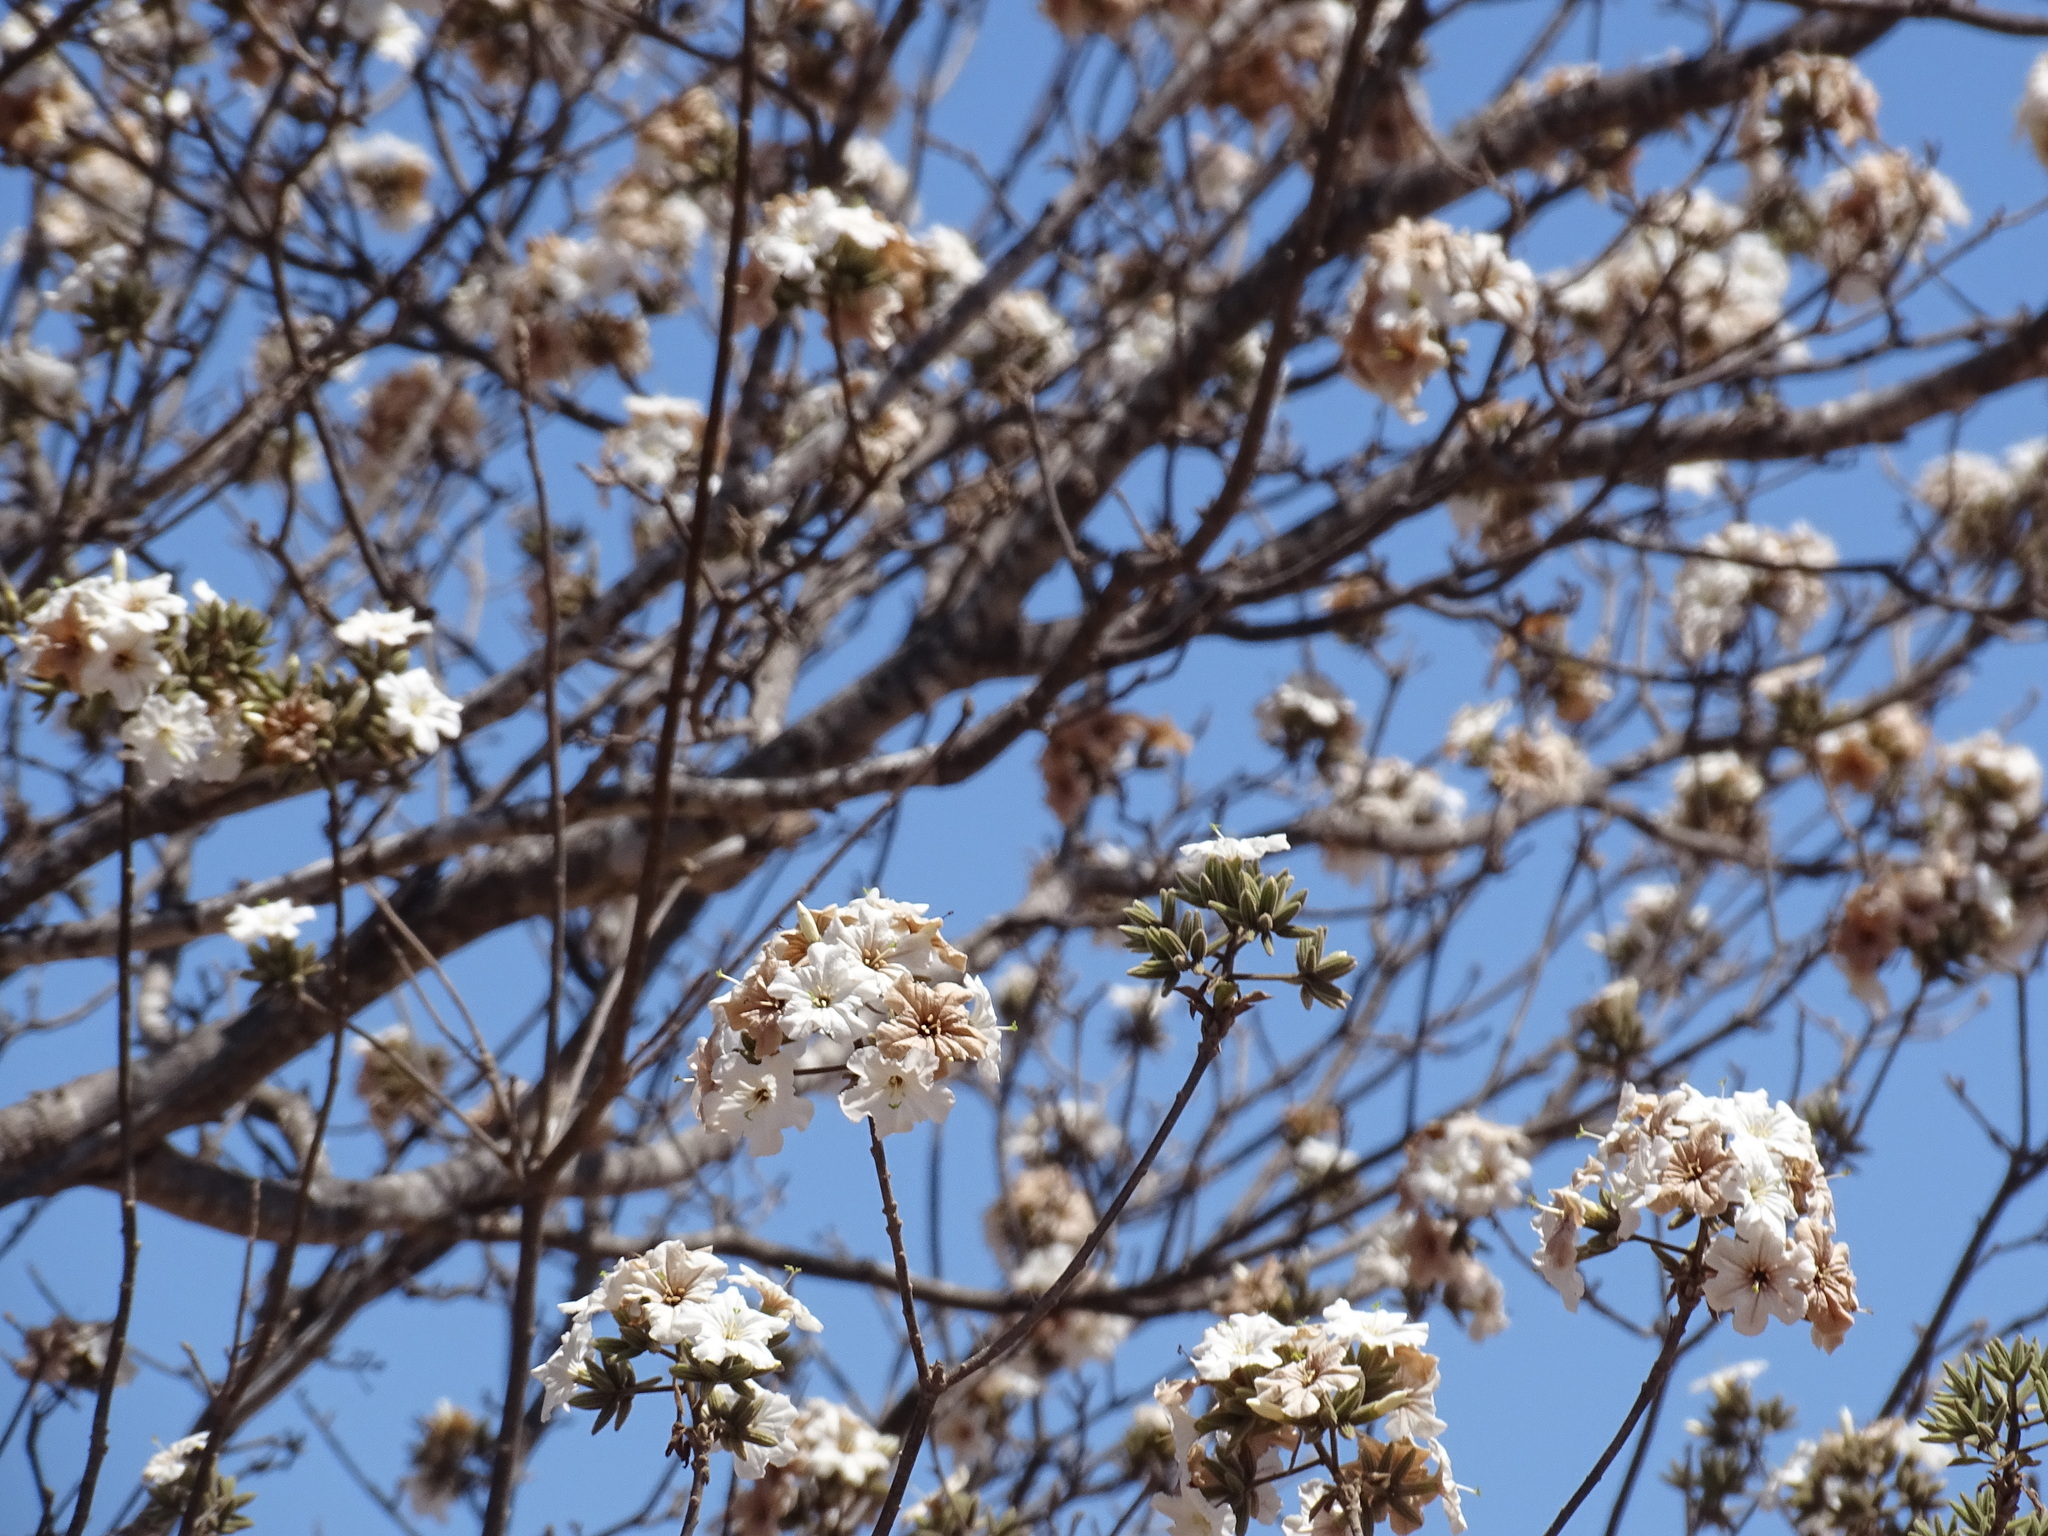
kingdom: Plantae
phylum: Tracheophyta
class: Magnoliopsida
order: Boraginales
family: Cordiaceae
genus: Cordia
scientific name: Cordia sonorae
